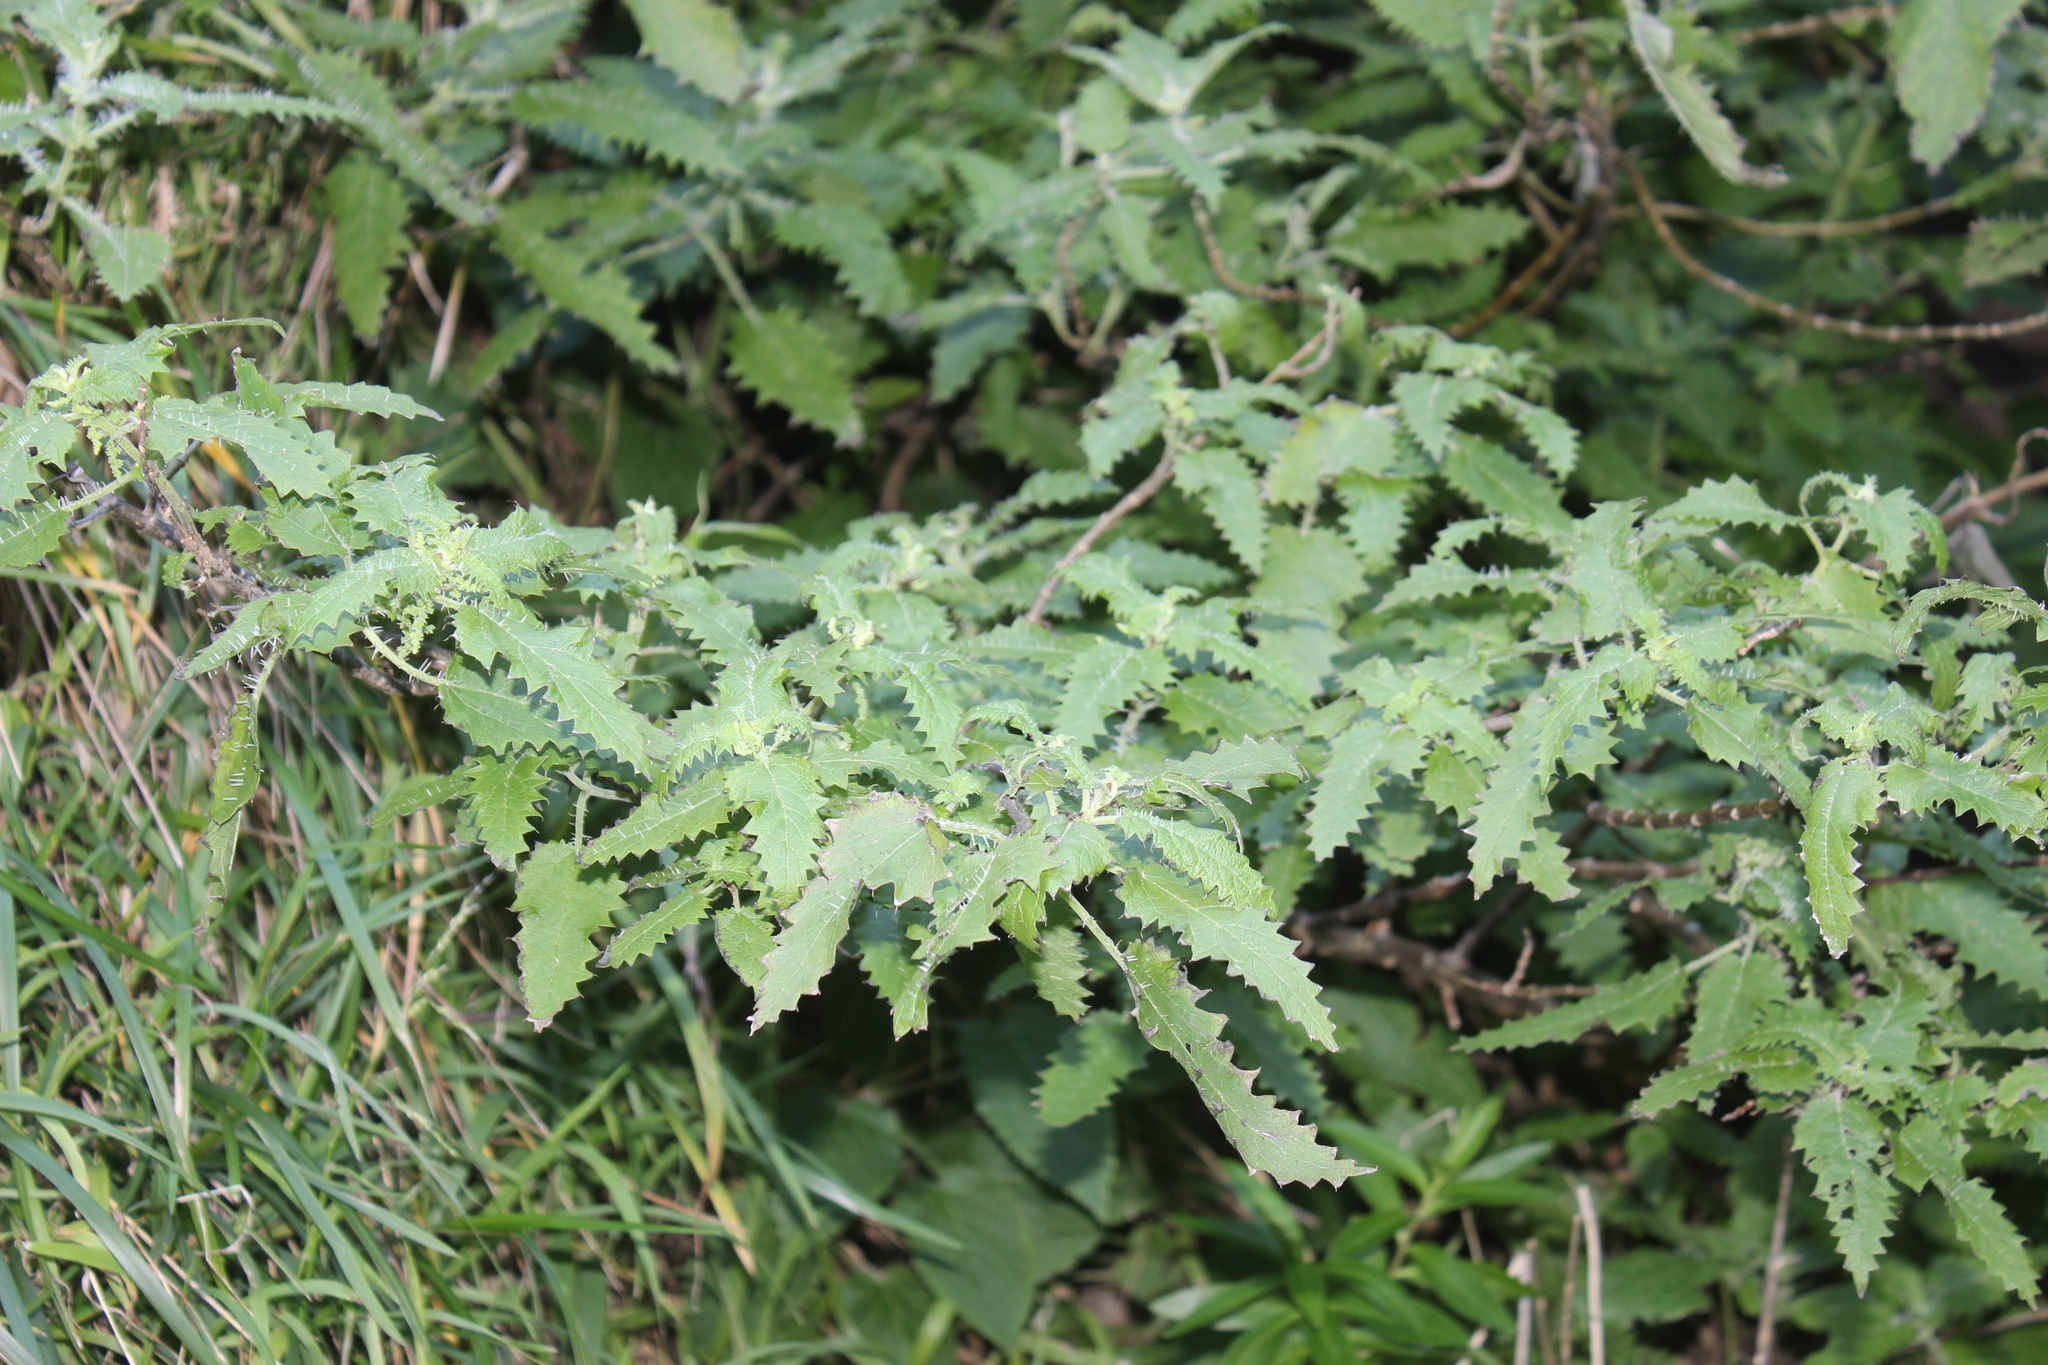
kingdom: Plantae
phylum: Tracheophyta
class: Magnoliopsida
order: Rosales
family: Urticaceae
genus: Urtica
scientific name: Urtica ferox
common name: Tree nettle
